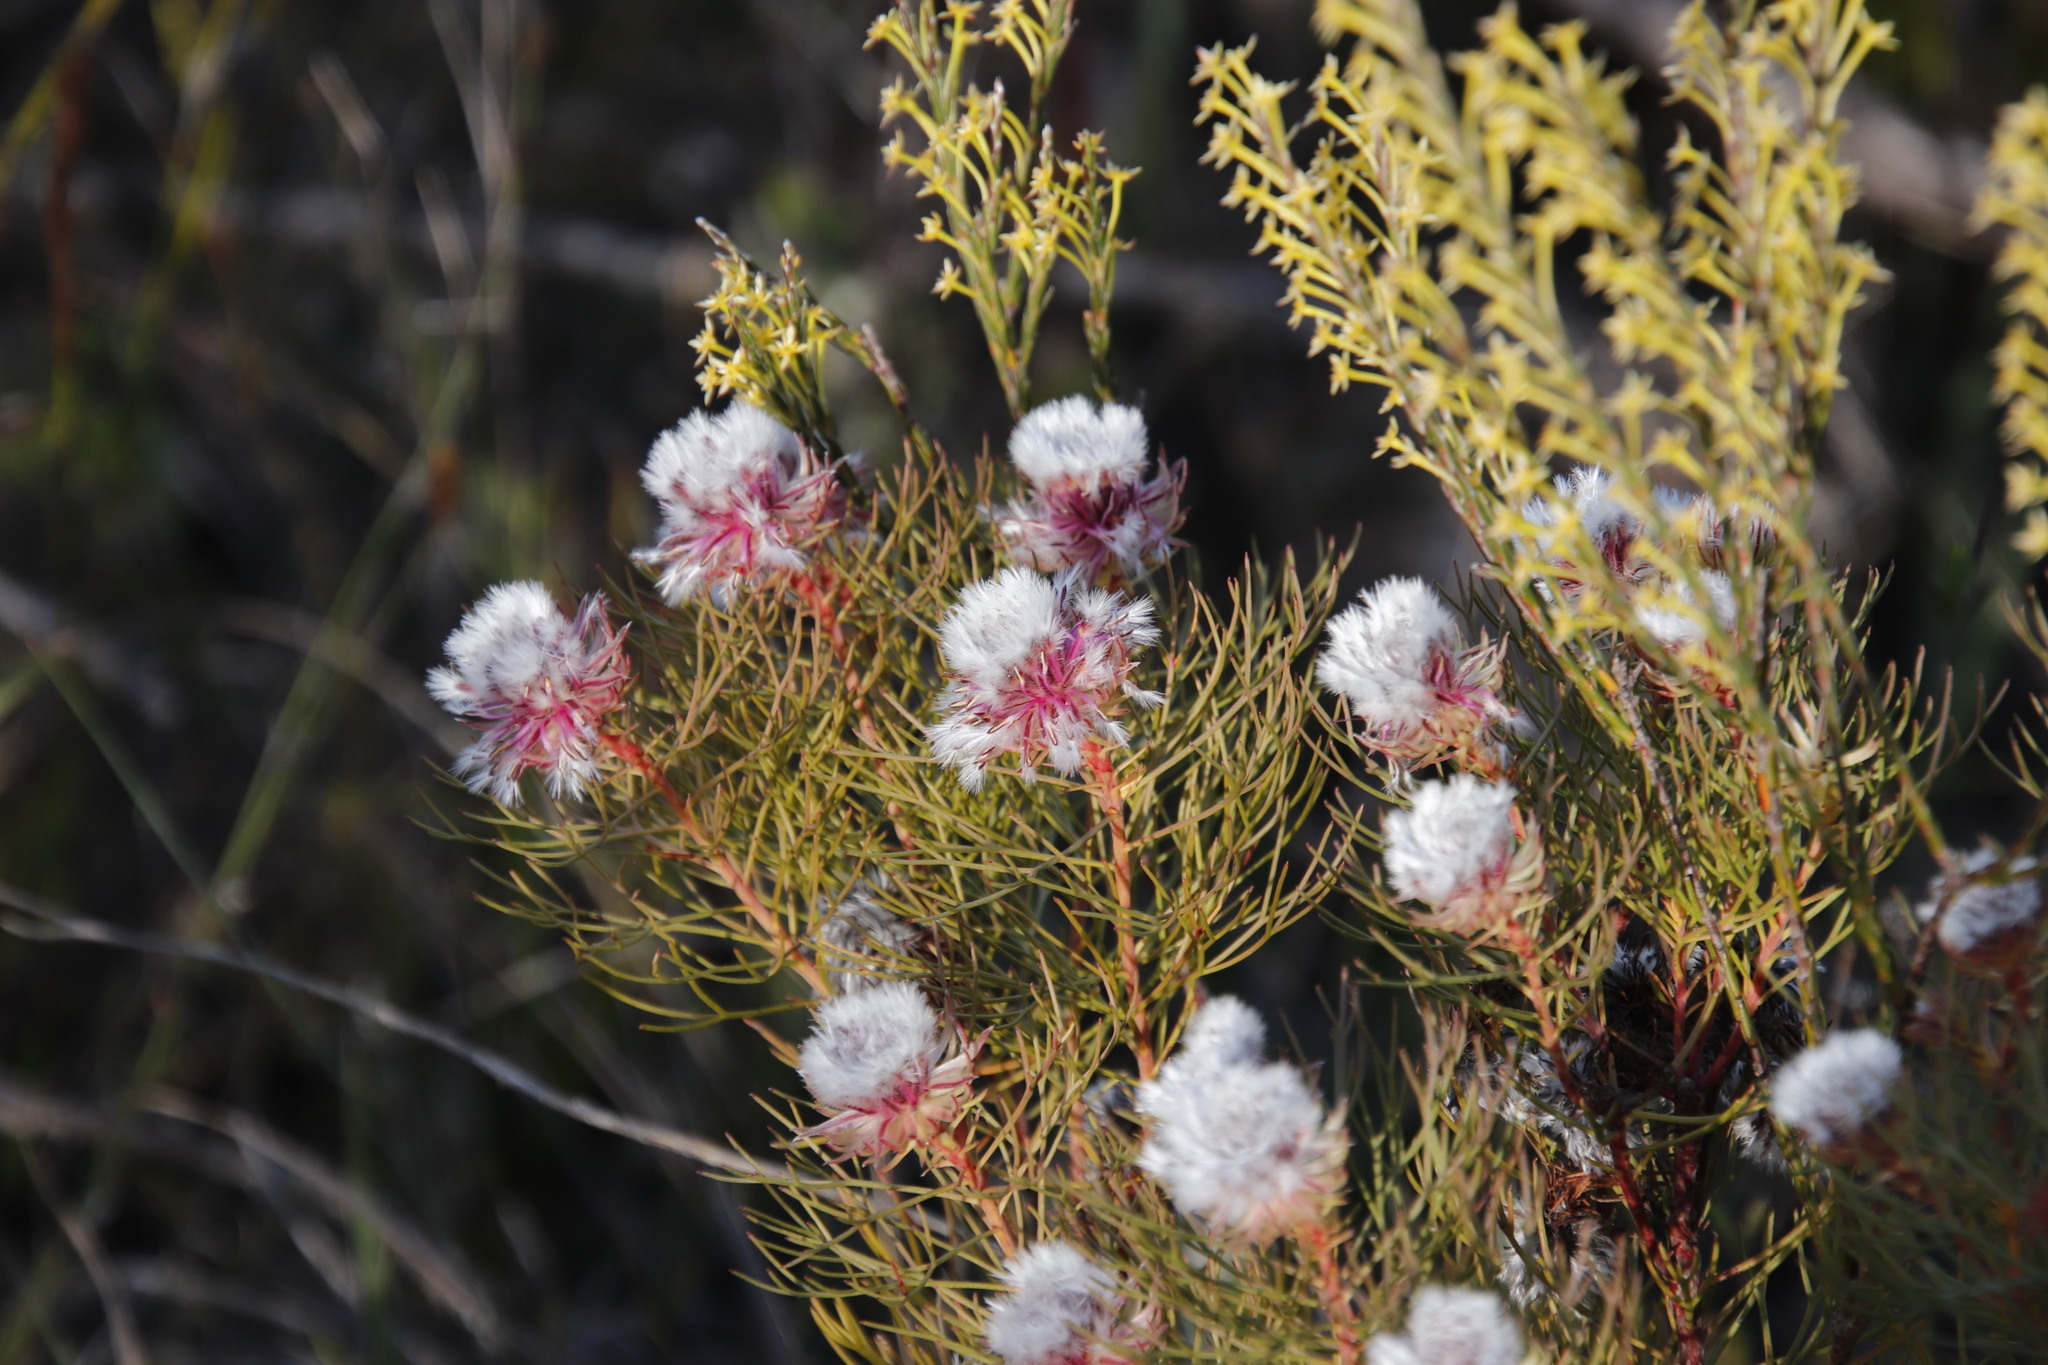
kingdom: Plantae
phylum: Tracheophyta
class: Magnoliopsida
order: Proteales
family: Proteaceae
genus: Serruria
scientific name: Serruria phylicoides
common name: Bearded spiderhead
